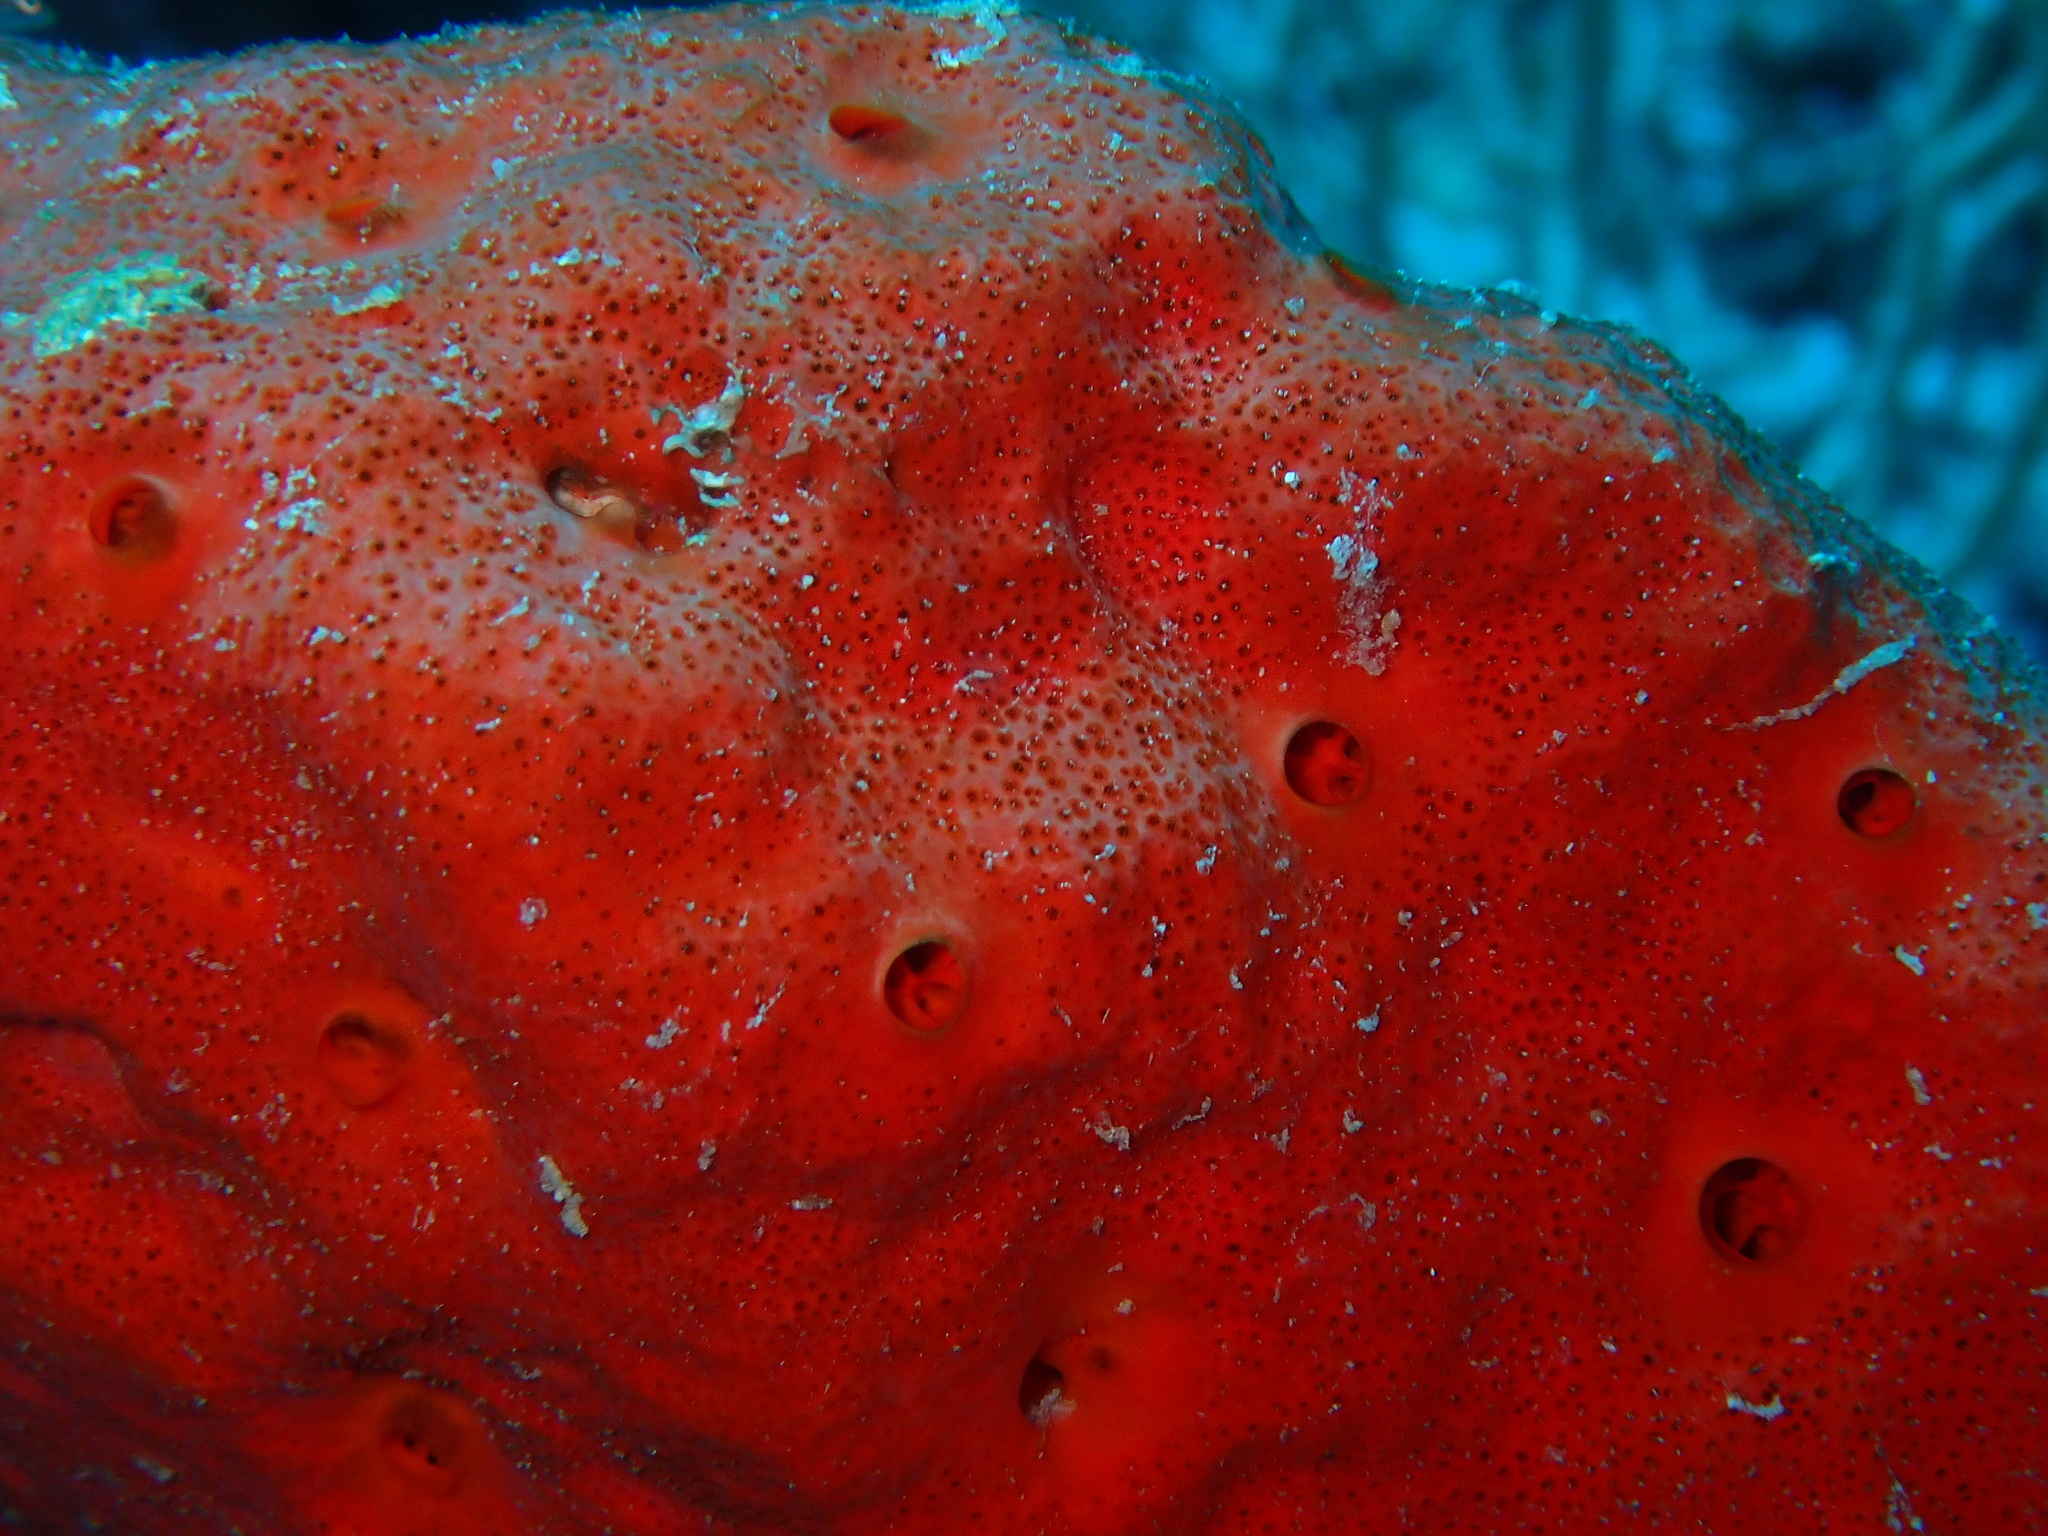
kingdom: Animalia
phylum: Porifera
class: Demospongiae
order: Clionaida
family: Clionaidae
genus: Pione
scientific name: Pione mussae
